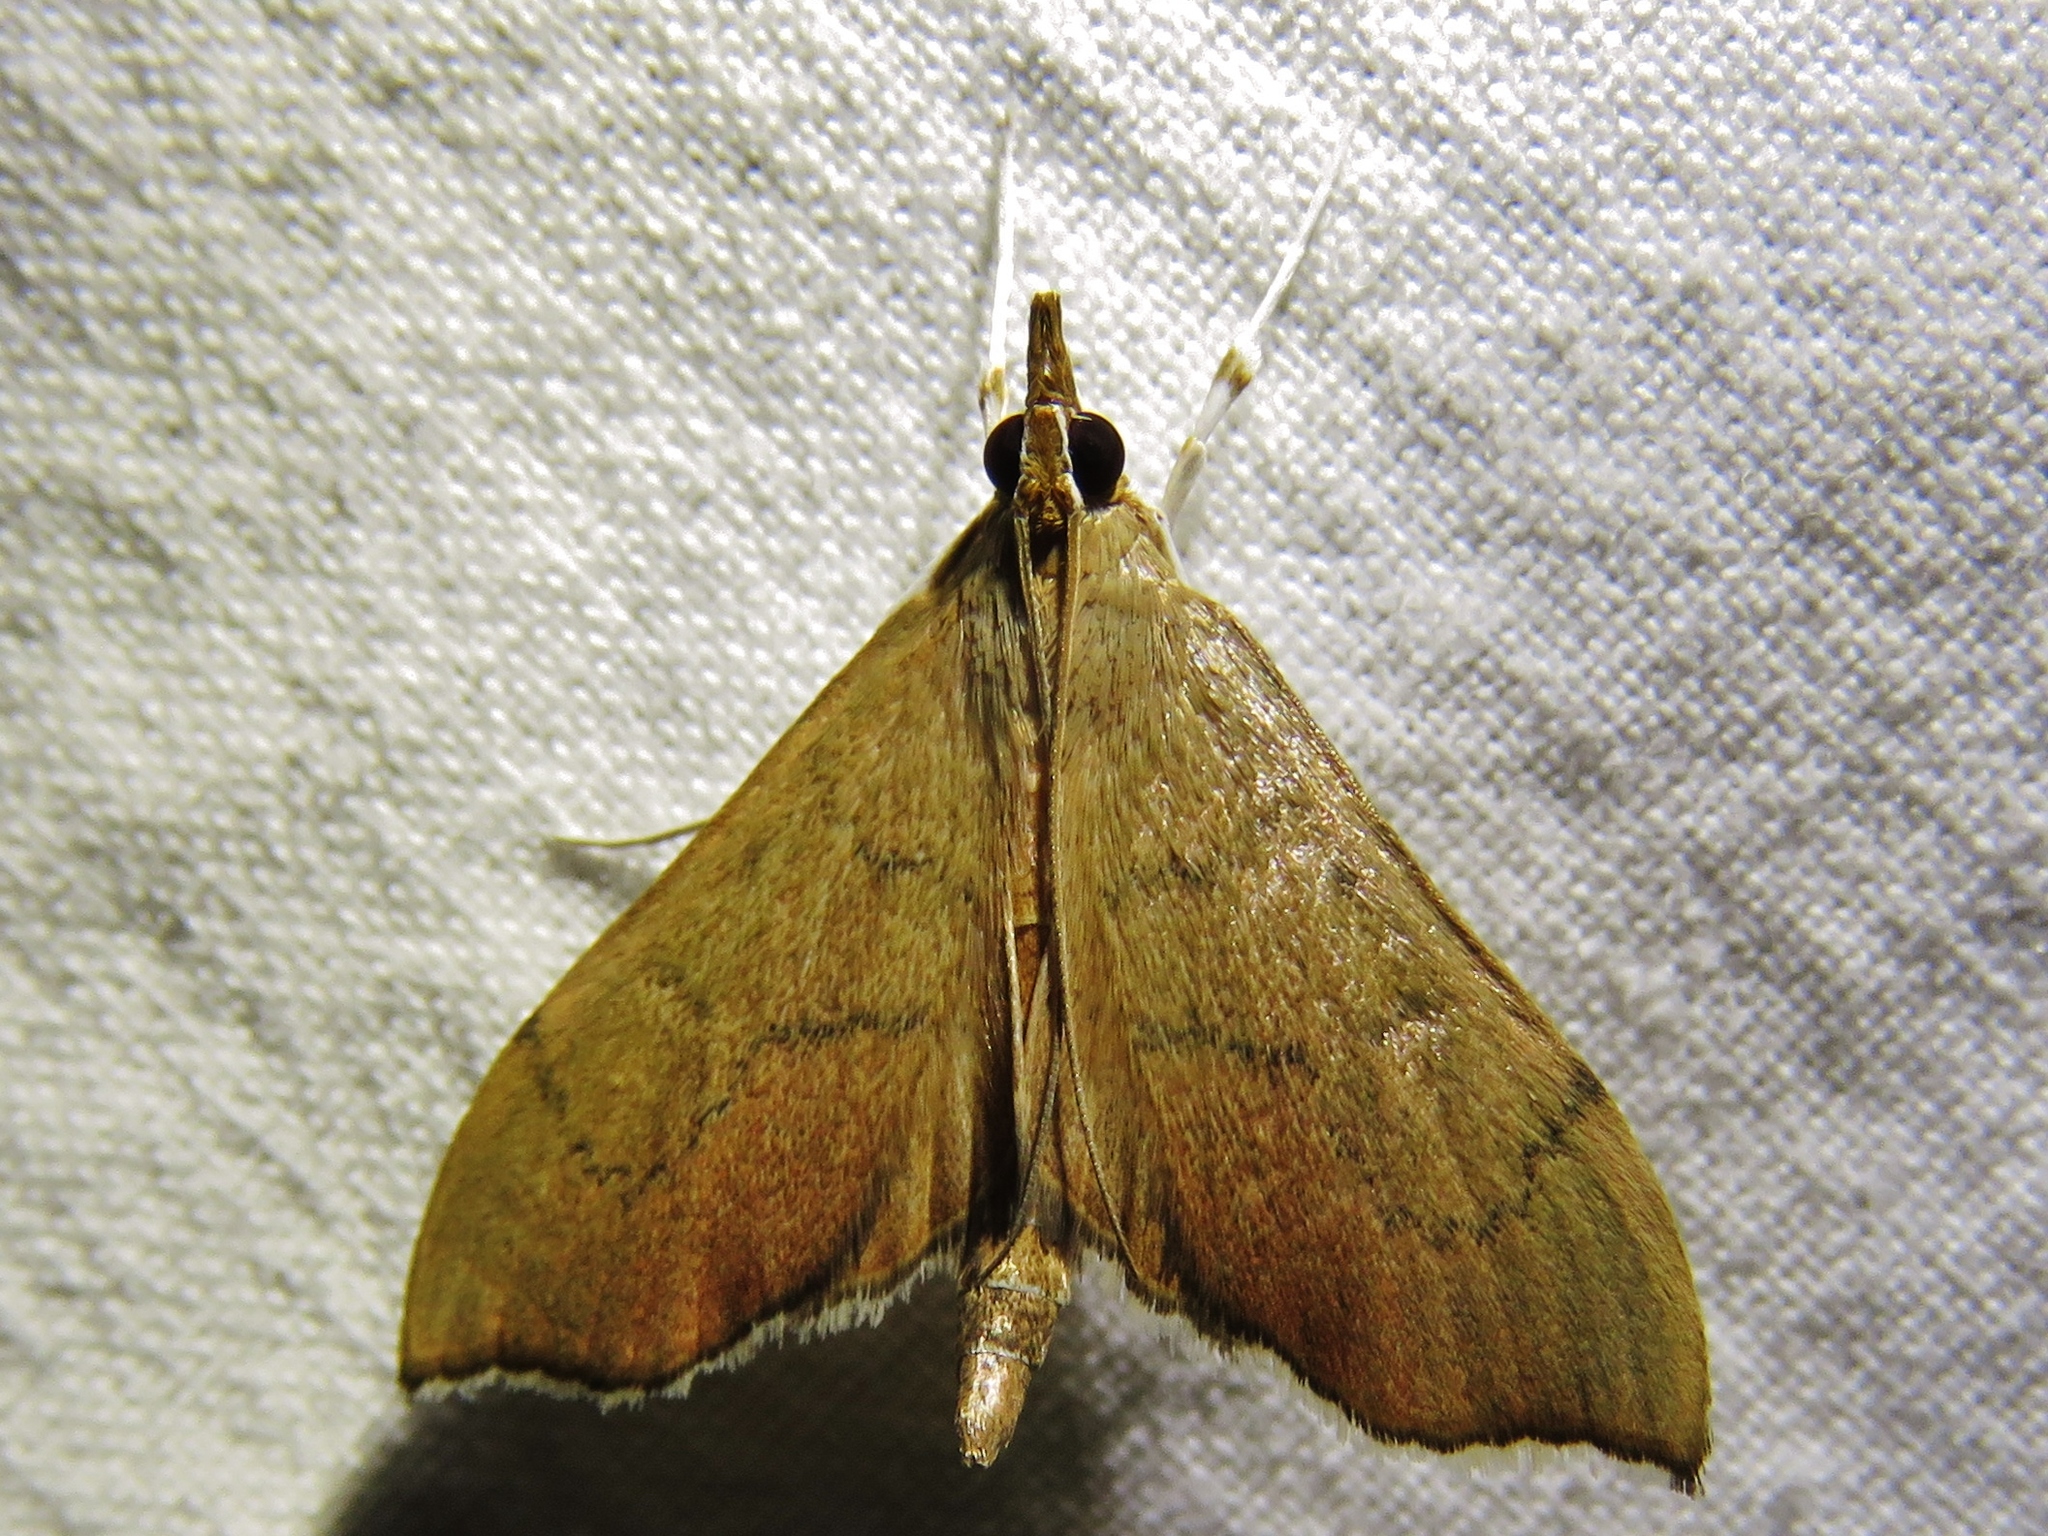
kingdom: Animalia
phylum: Arthropoda
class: Insecta
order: Lepidoptera
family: Crambidae
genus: Sericoplaga
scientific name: Sericoplaga externalis
